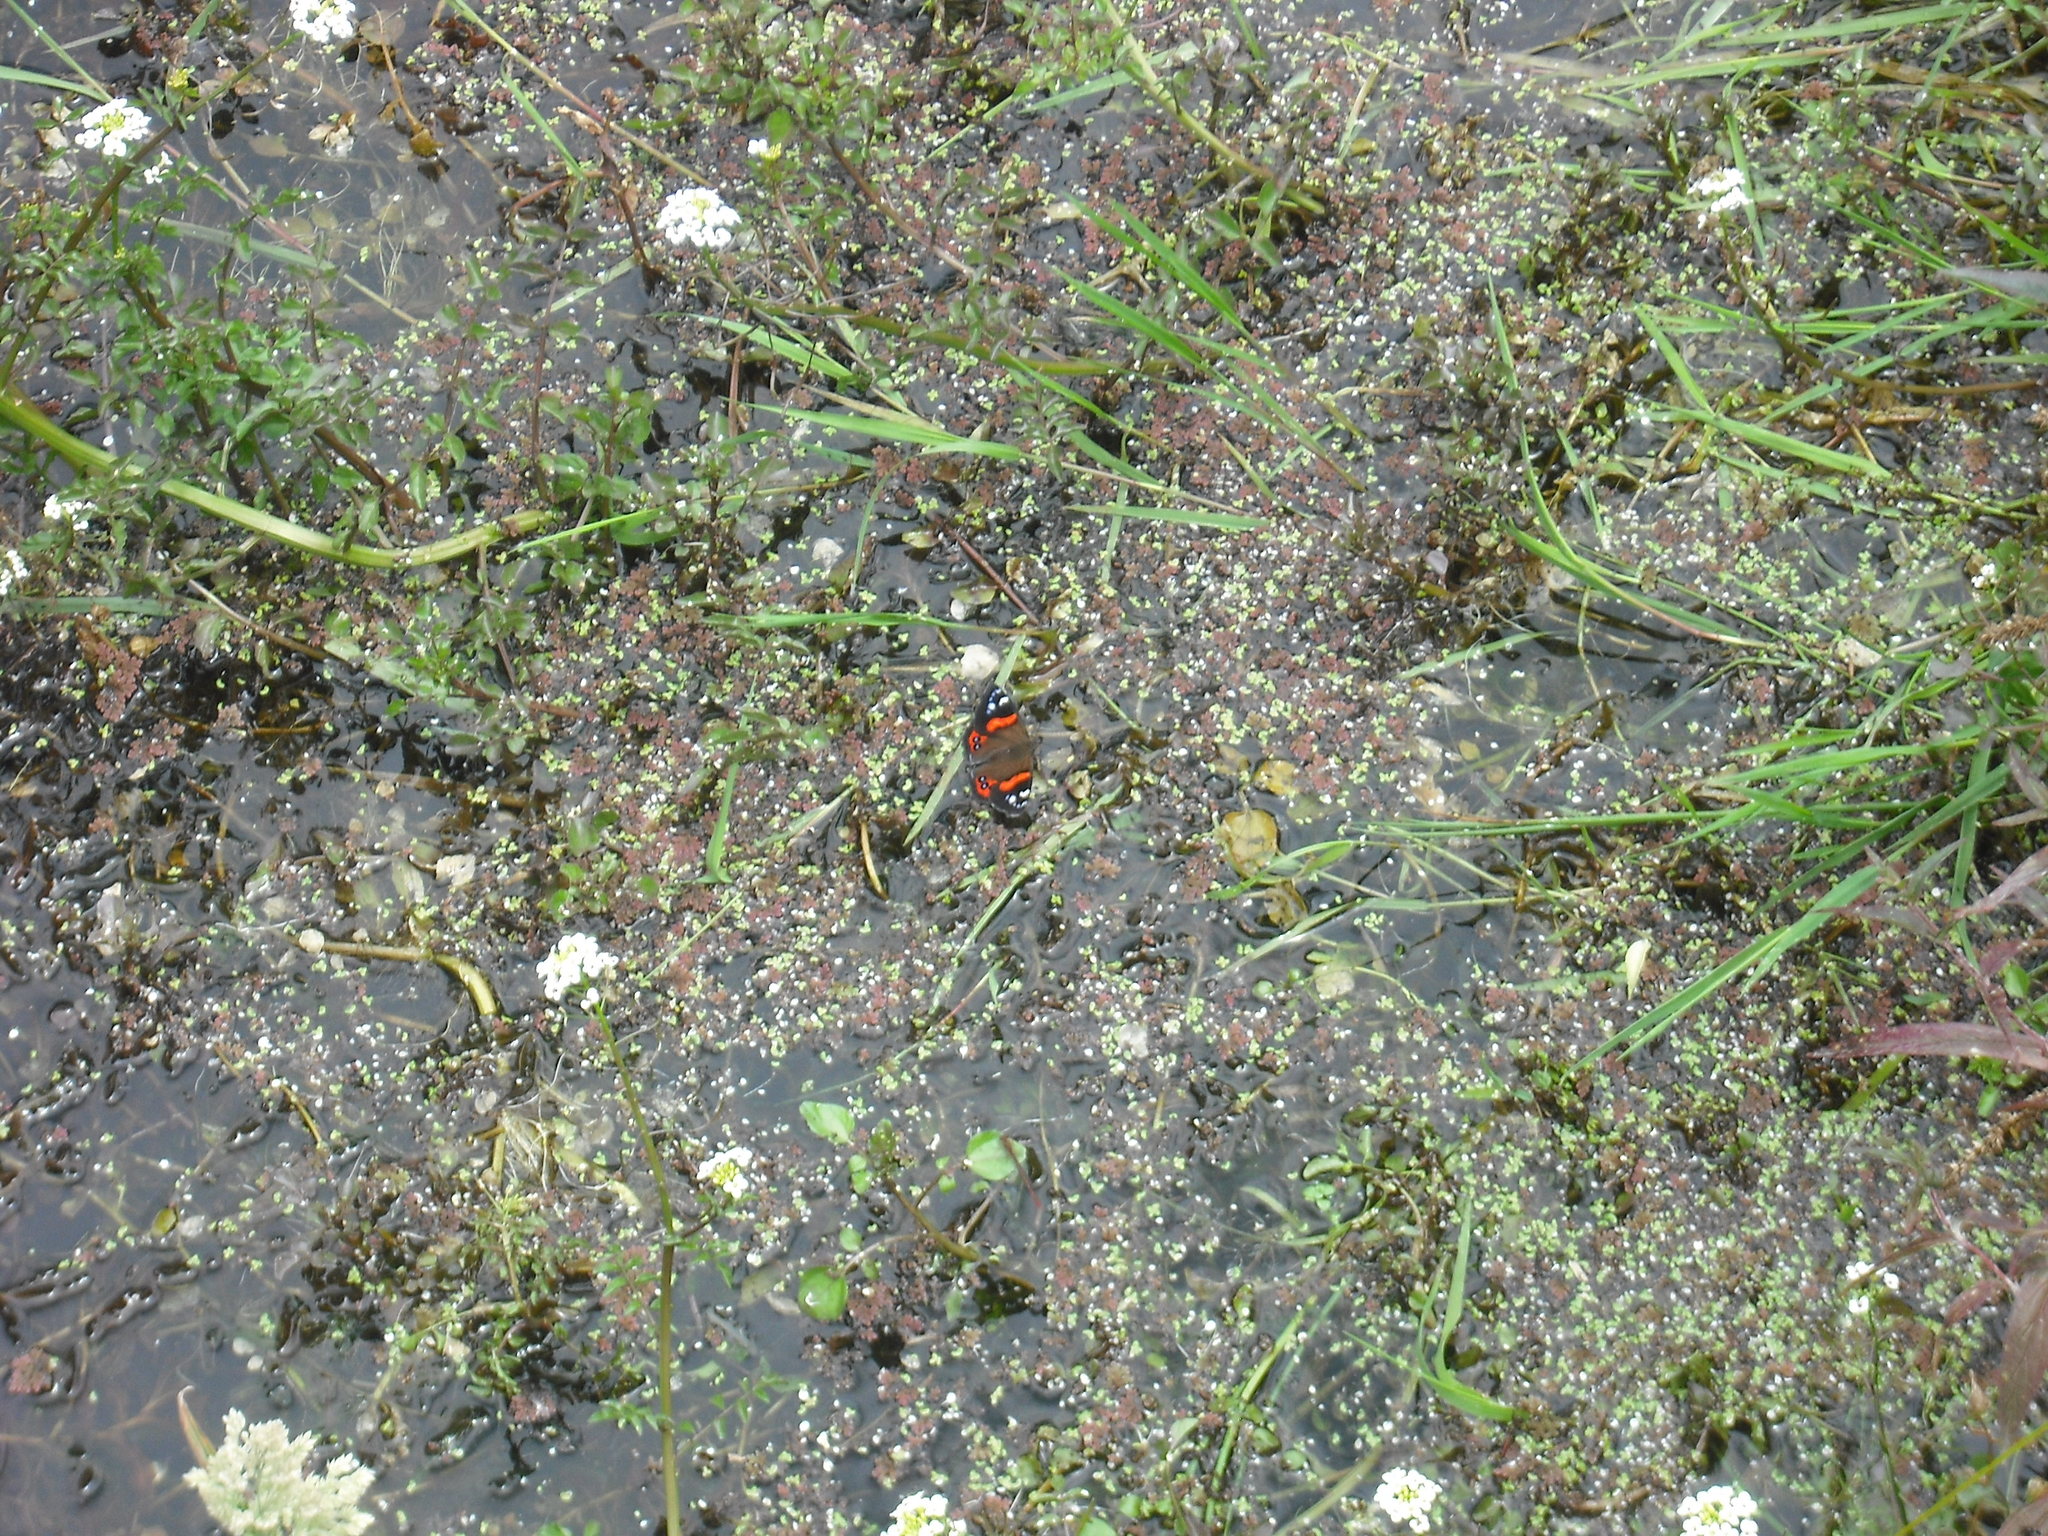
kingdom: Animalia
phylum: Arthropoda
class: Insecta
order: Lepidoptera
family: Nymphalidae
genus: Vanessa
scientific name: Vanessa gonerilla
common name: New zealand red admiral
